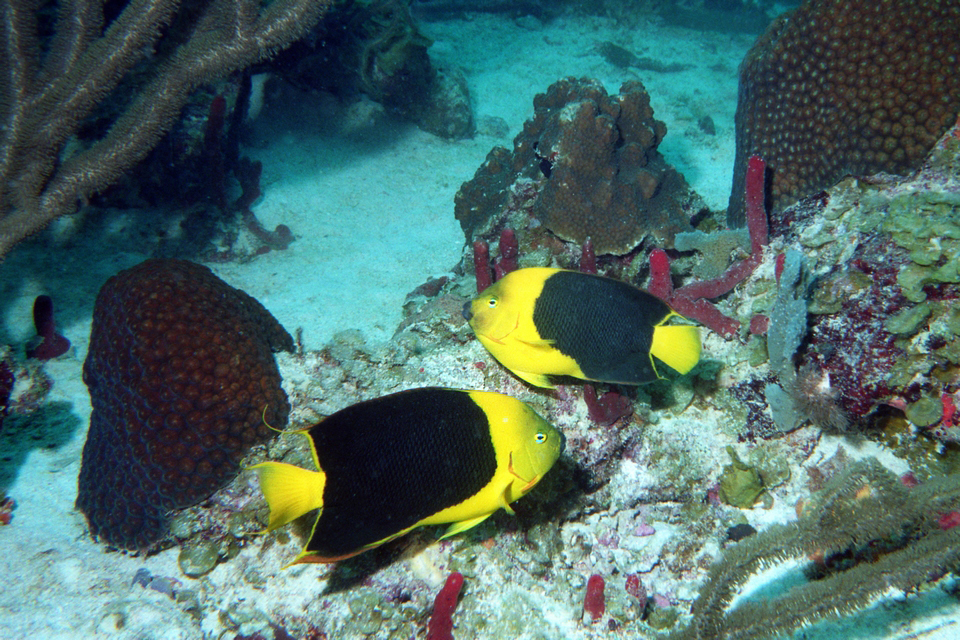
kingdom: Animalia
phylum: Chordata
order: Perciformes
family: Pomacanthidae
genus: Holacanthus
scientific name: Holacanthus tricolor
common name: Rock beauty
